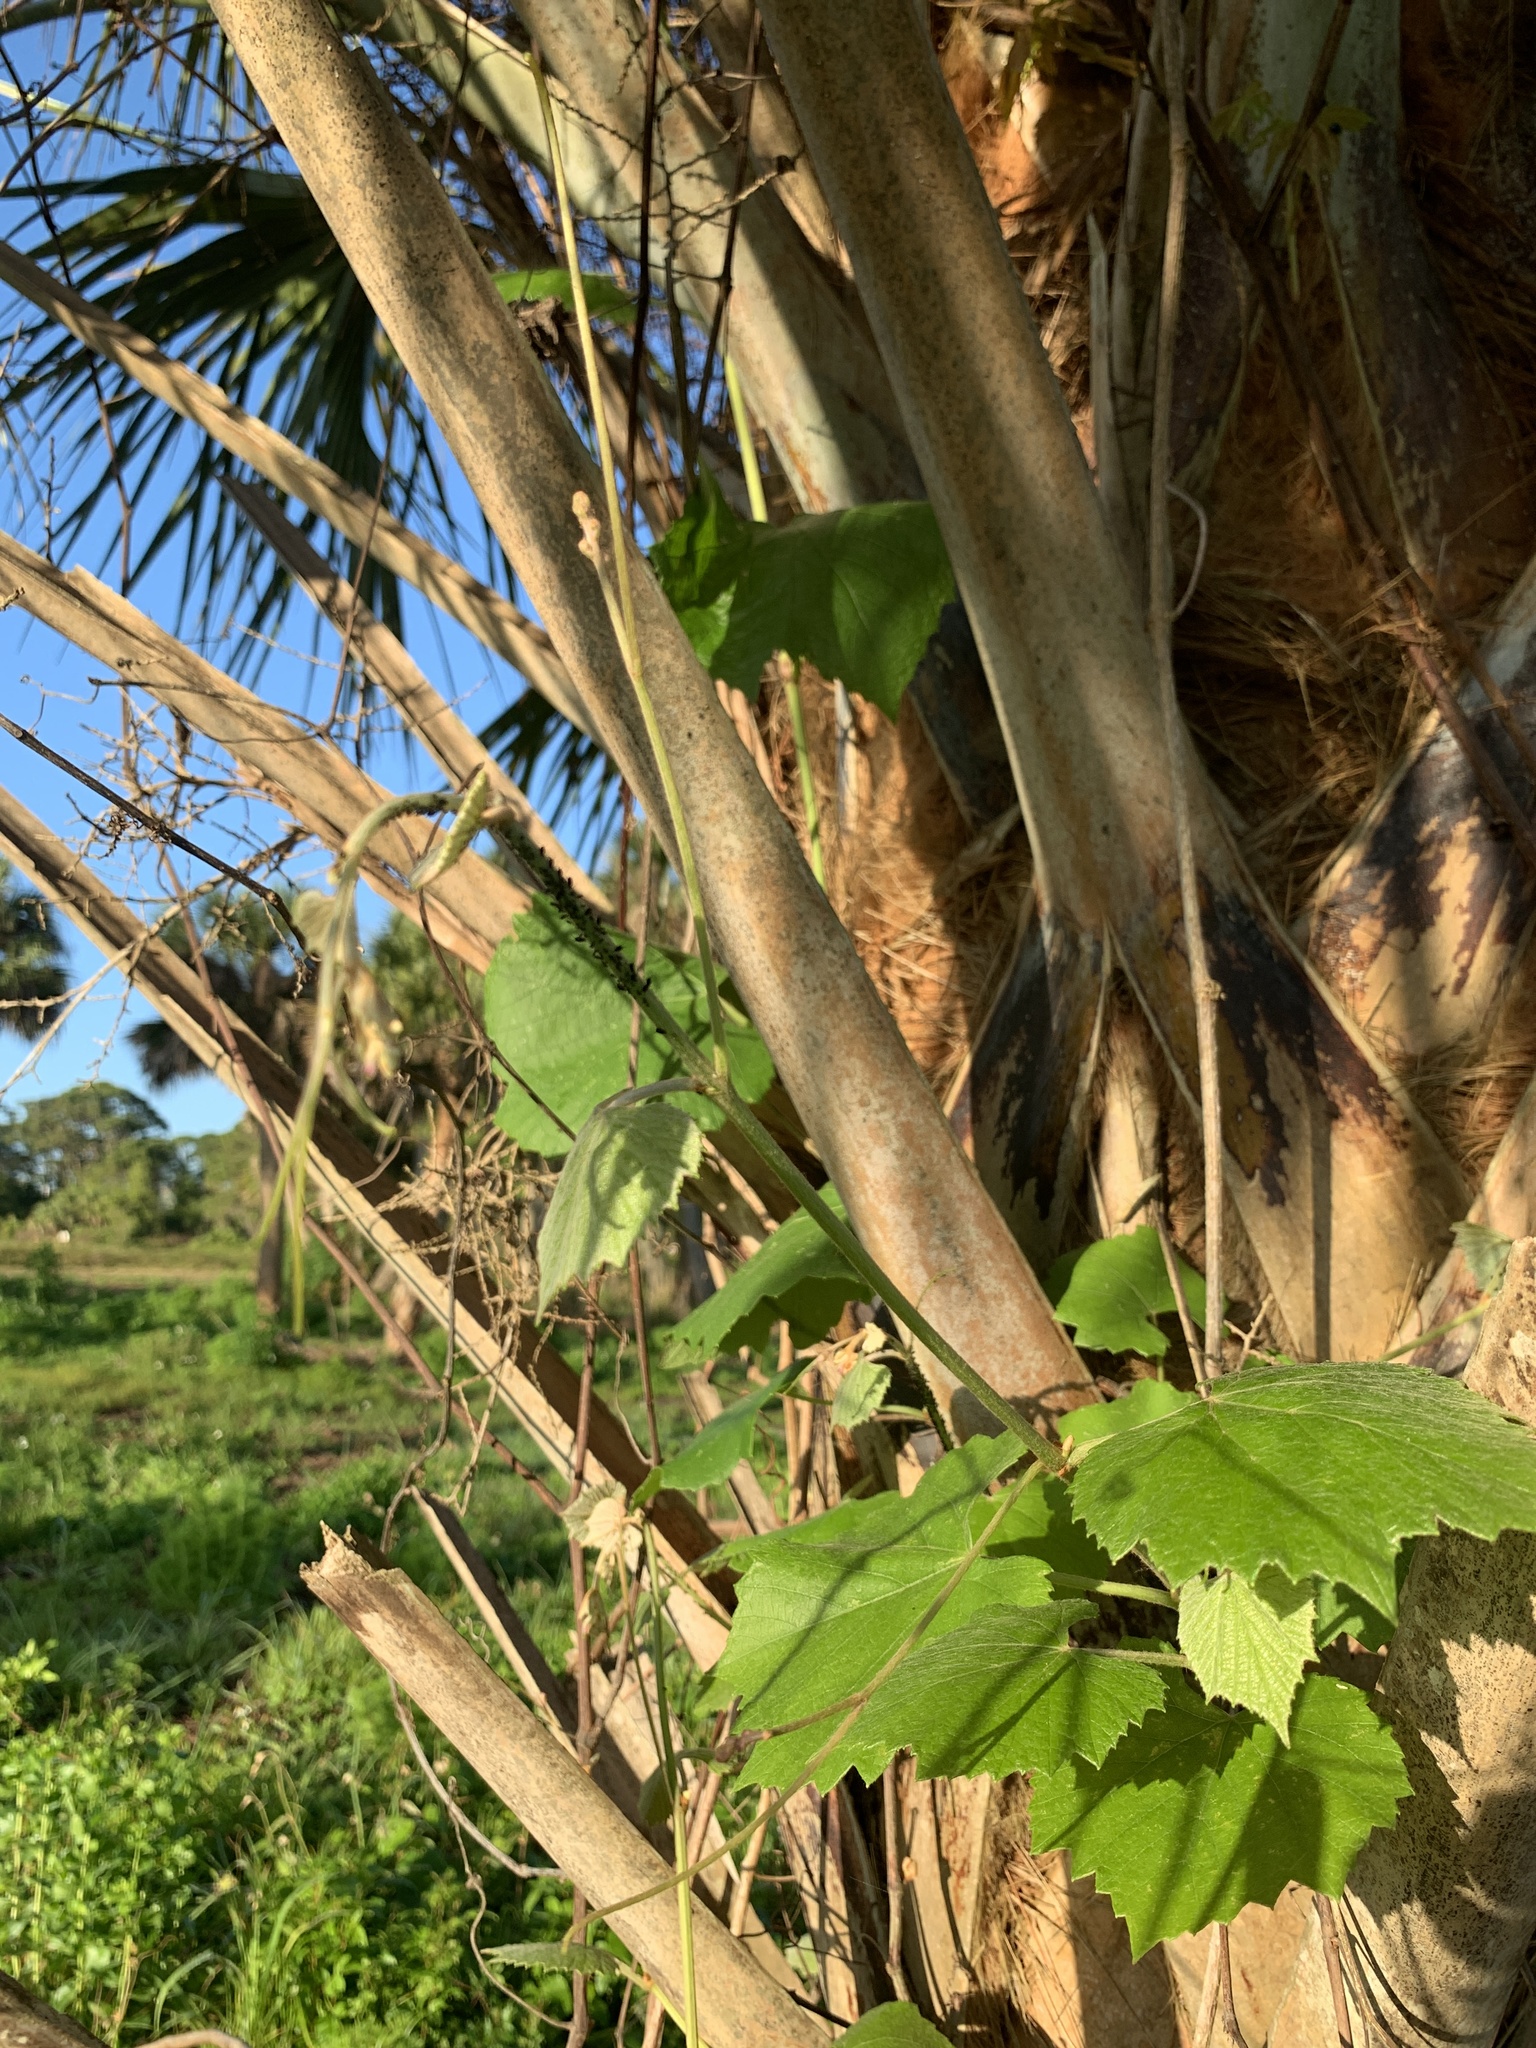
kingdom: Plantae
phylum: Tracheophyta
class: Magnoliopsida
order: Vitales
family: Vitaceae
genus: Vitis
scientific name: Vitis shuttleworthii
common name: Caloosa grape
